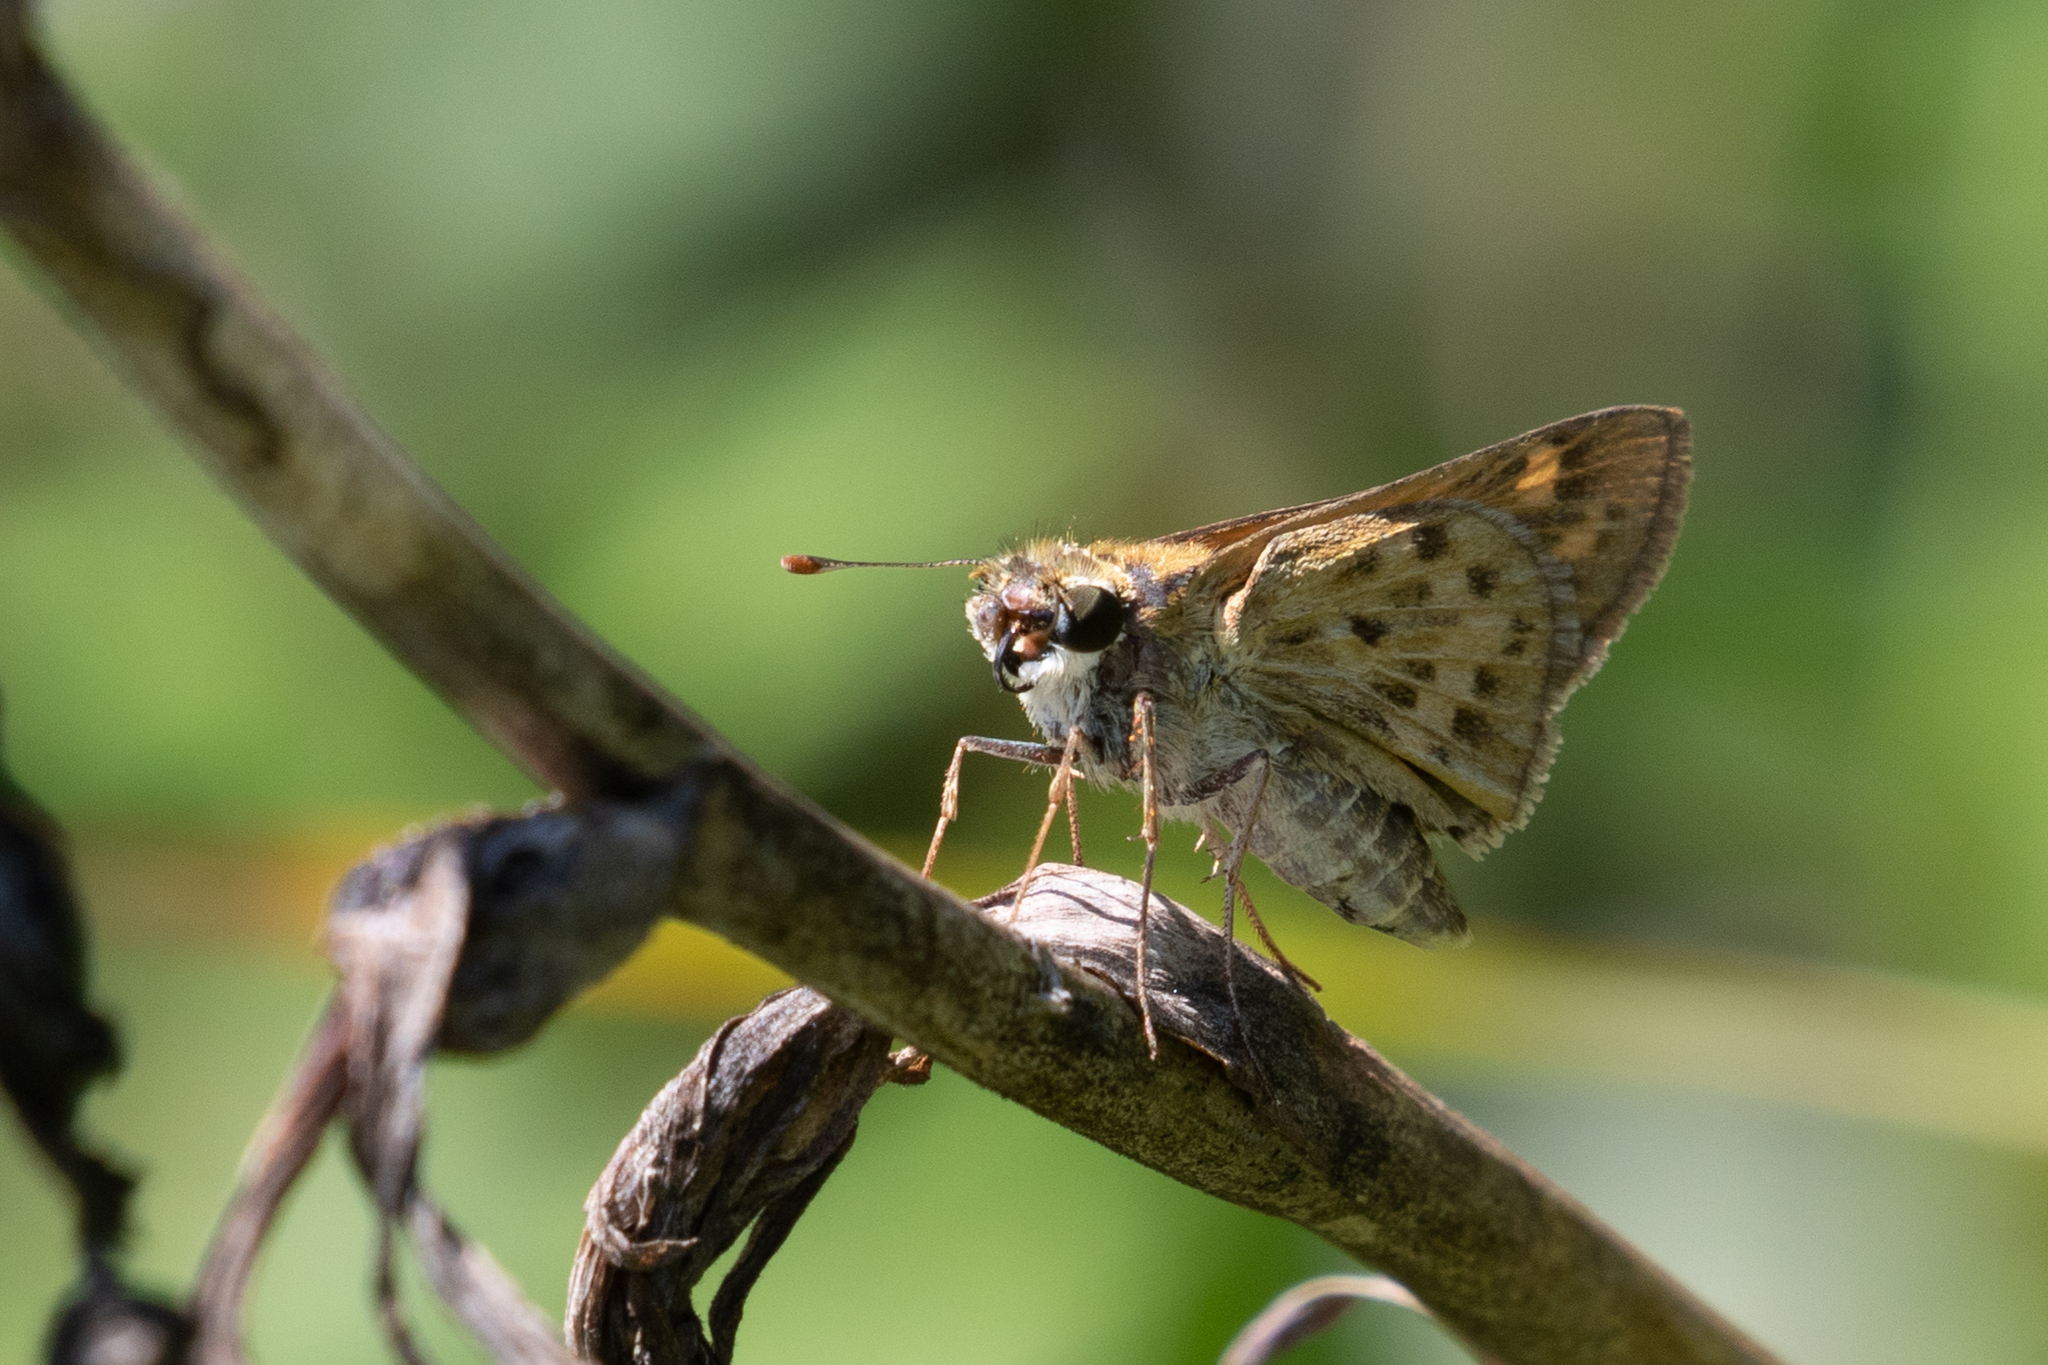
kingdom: Animalia
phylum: Arthropoda
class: Insecta
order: Lepidoptera
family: Hesperiidae
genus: Hylephila
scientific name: Hylephila phyleus
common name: Fiery skipper
